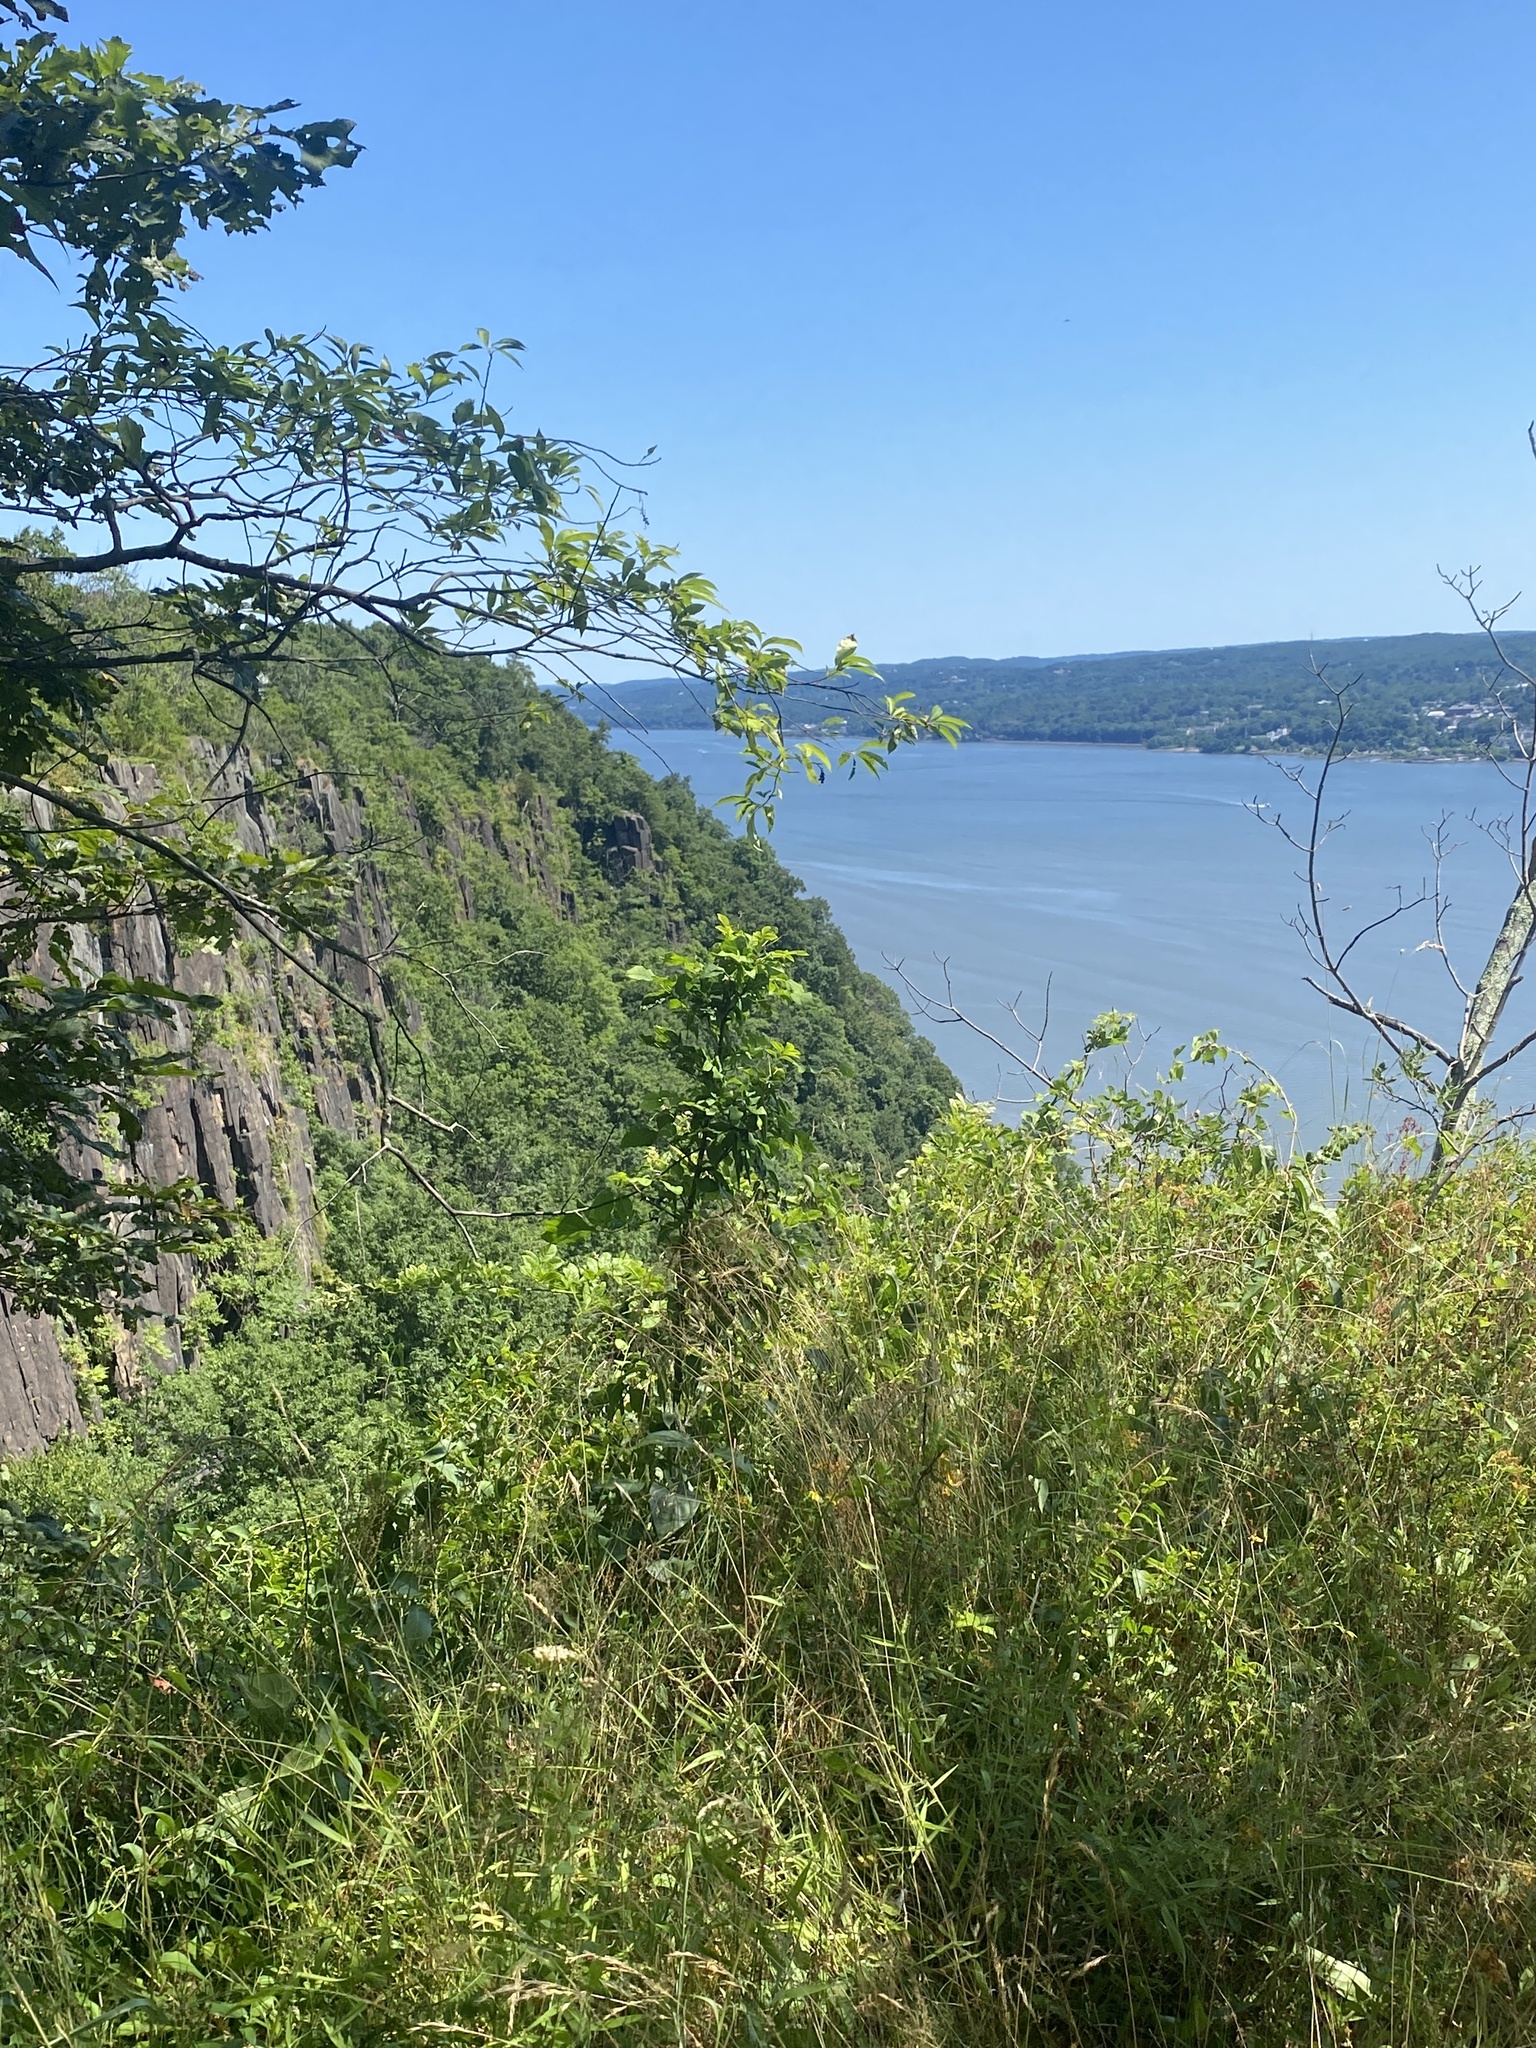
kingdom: Plantae
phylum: Tracheophyta
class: Magnoliopsida
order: Caryophyllales
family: Caryophyllaceae
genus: Dianthus
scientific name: Dianthus armeria
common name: Deptford pink
